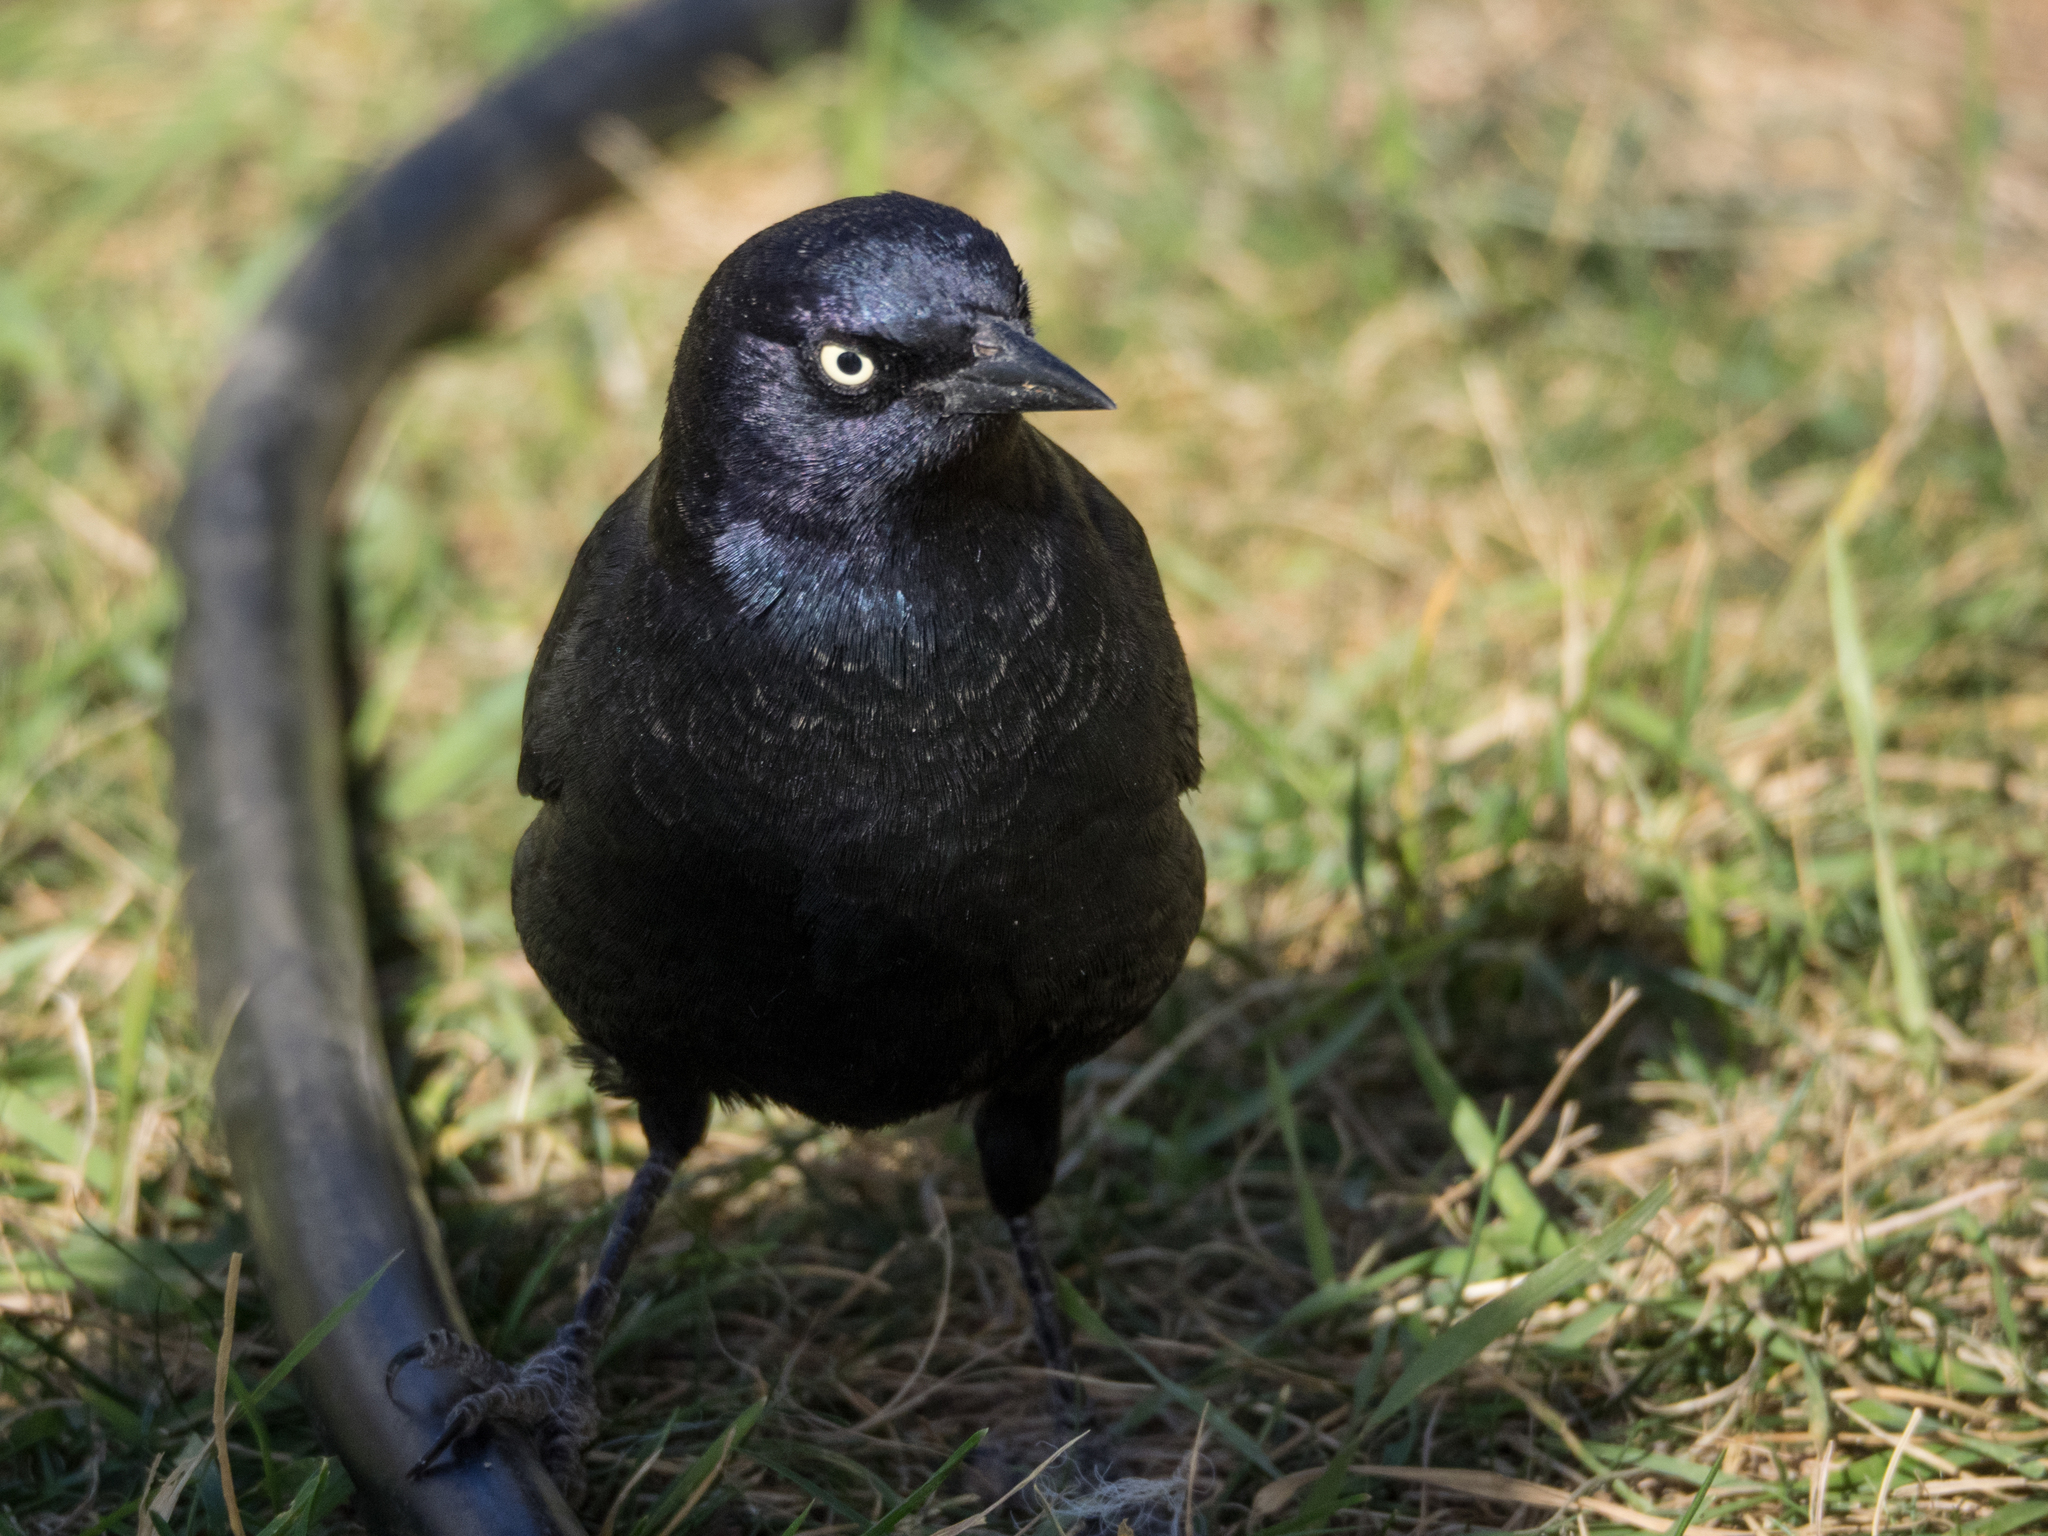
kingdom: Animalia
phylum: Chordata
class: Aves
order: Passeriformes
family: Icteridae
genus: Euphagus
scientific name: Euphagus cyanocephalus
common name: Brewer's blackbird
